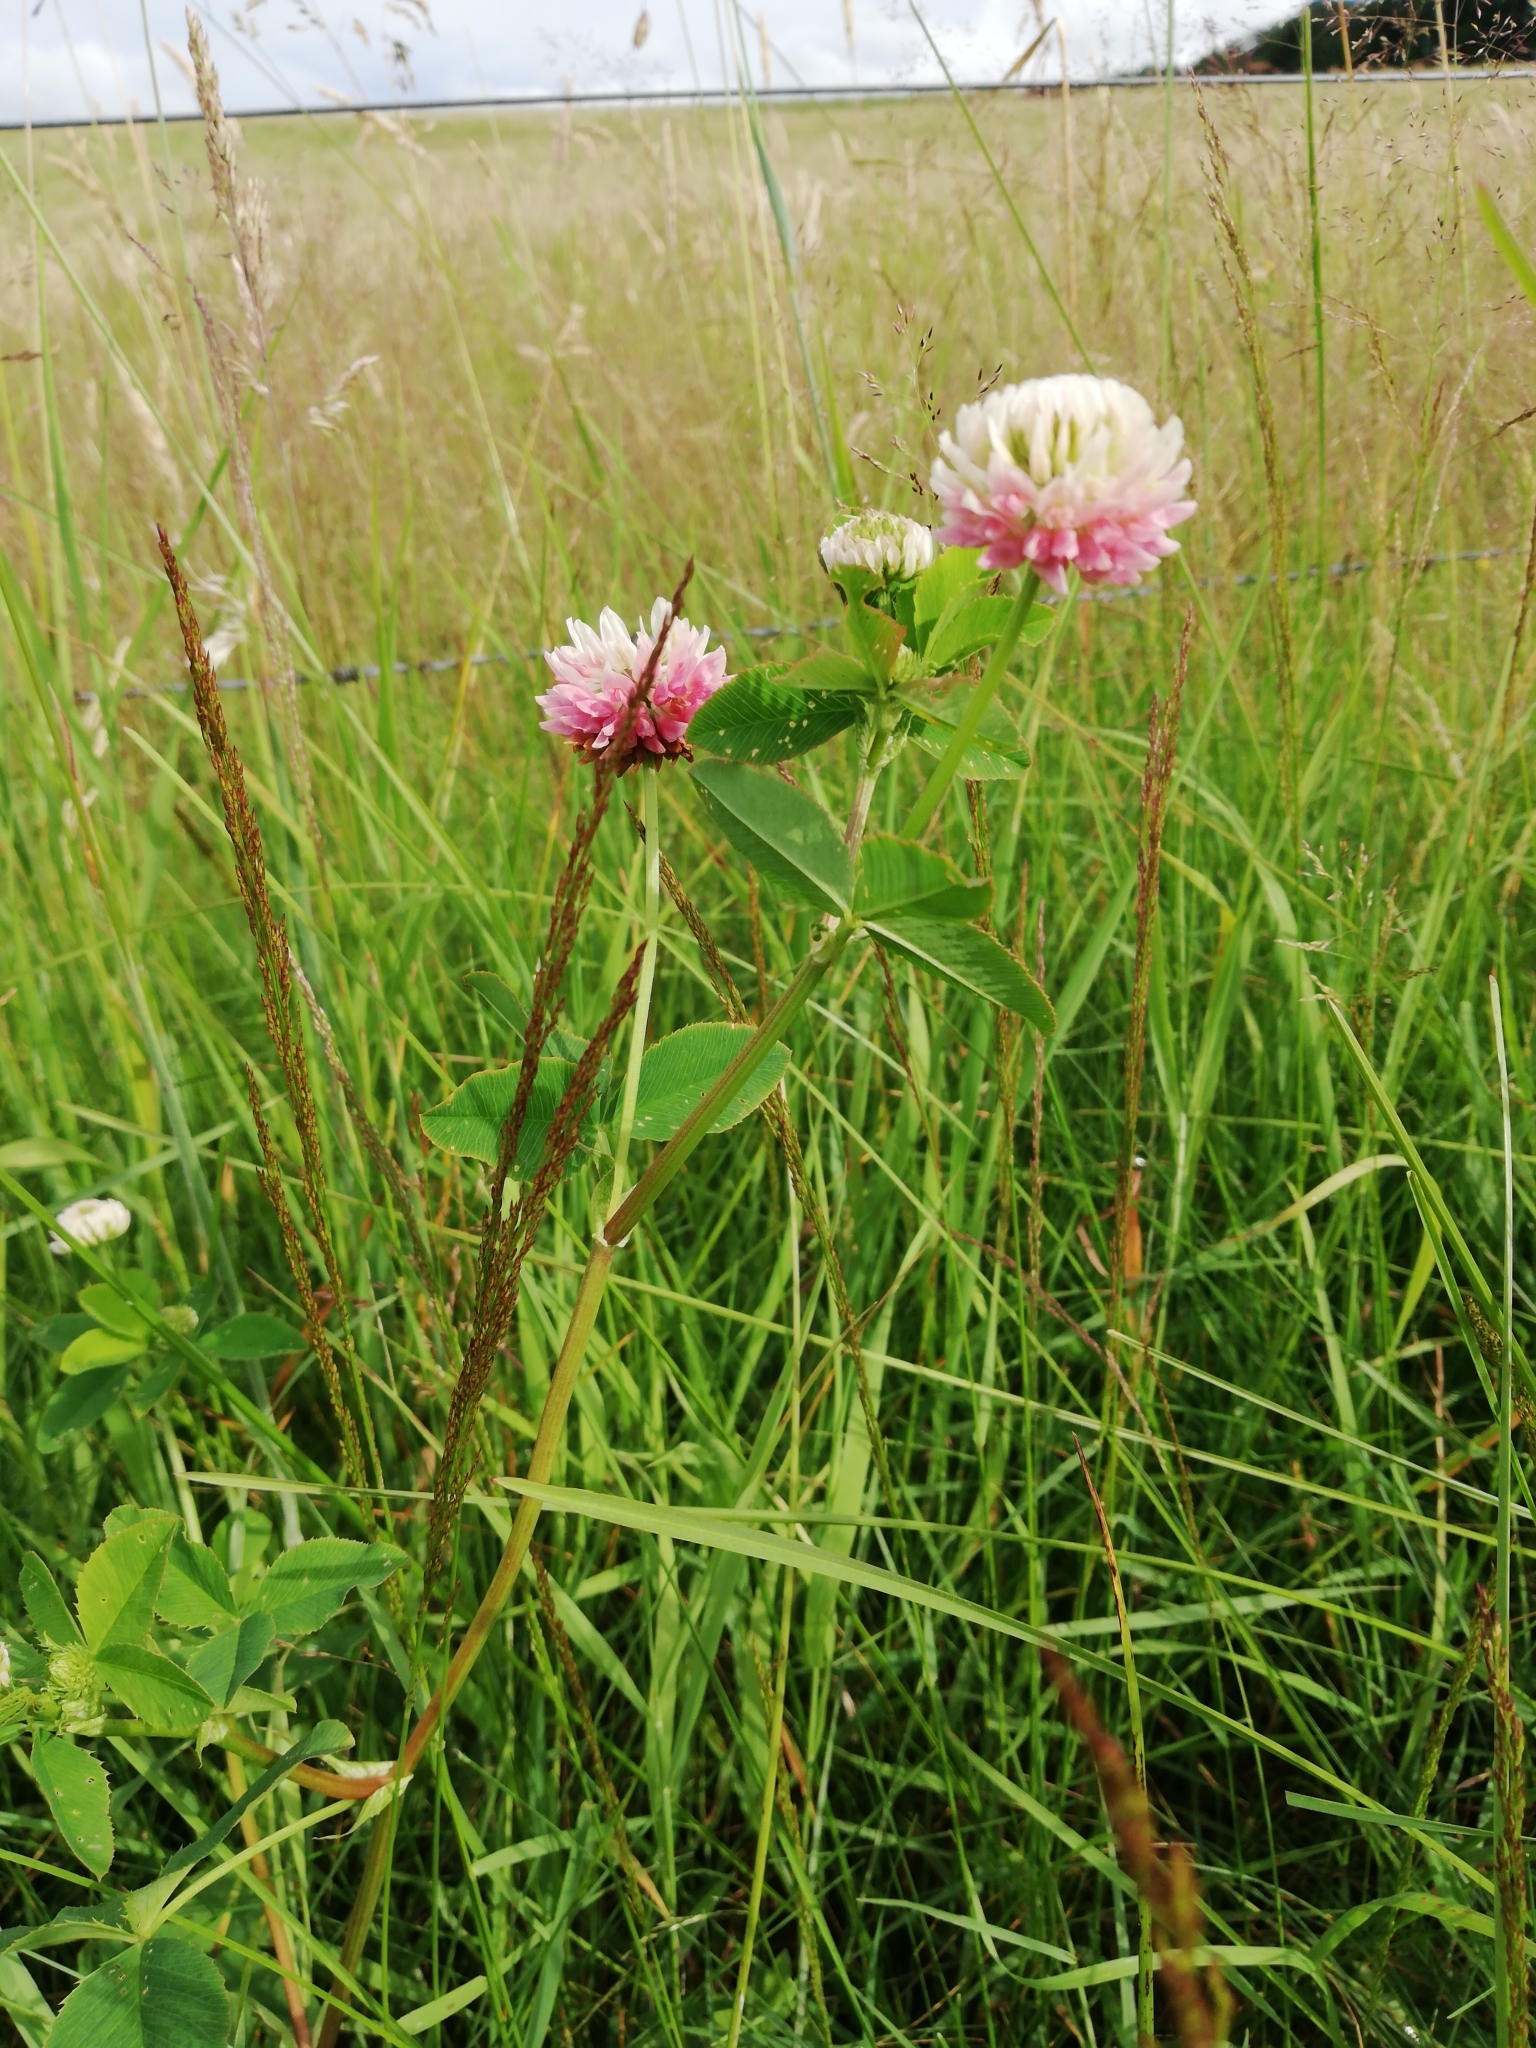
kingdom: Plantae
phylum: Tracheophyta
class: Magnoliopsida
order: Fabales
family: Fabaceae
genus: Trifolium
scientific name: Trifolium hybridum
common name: Alsike clover
